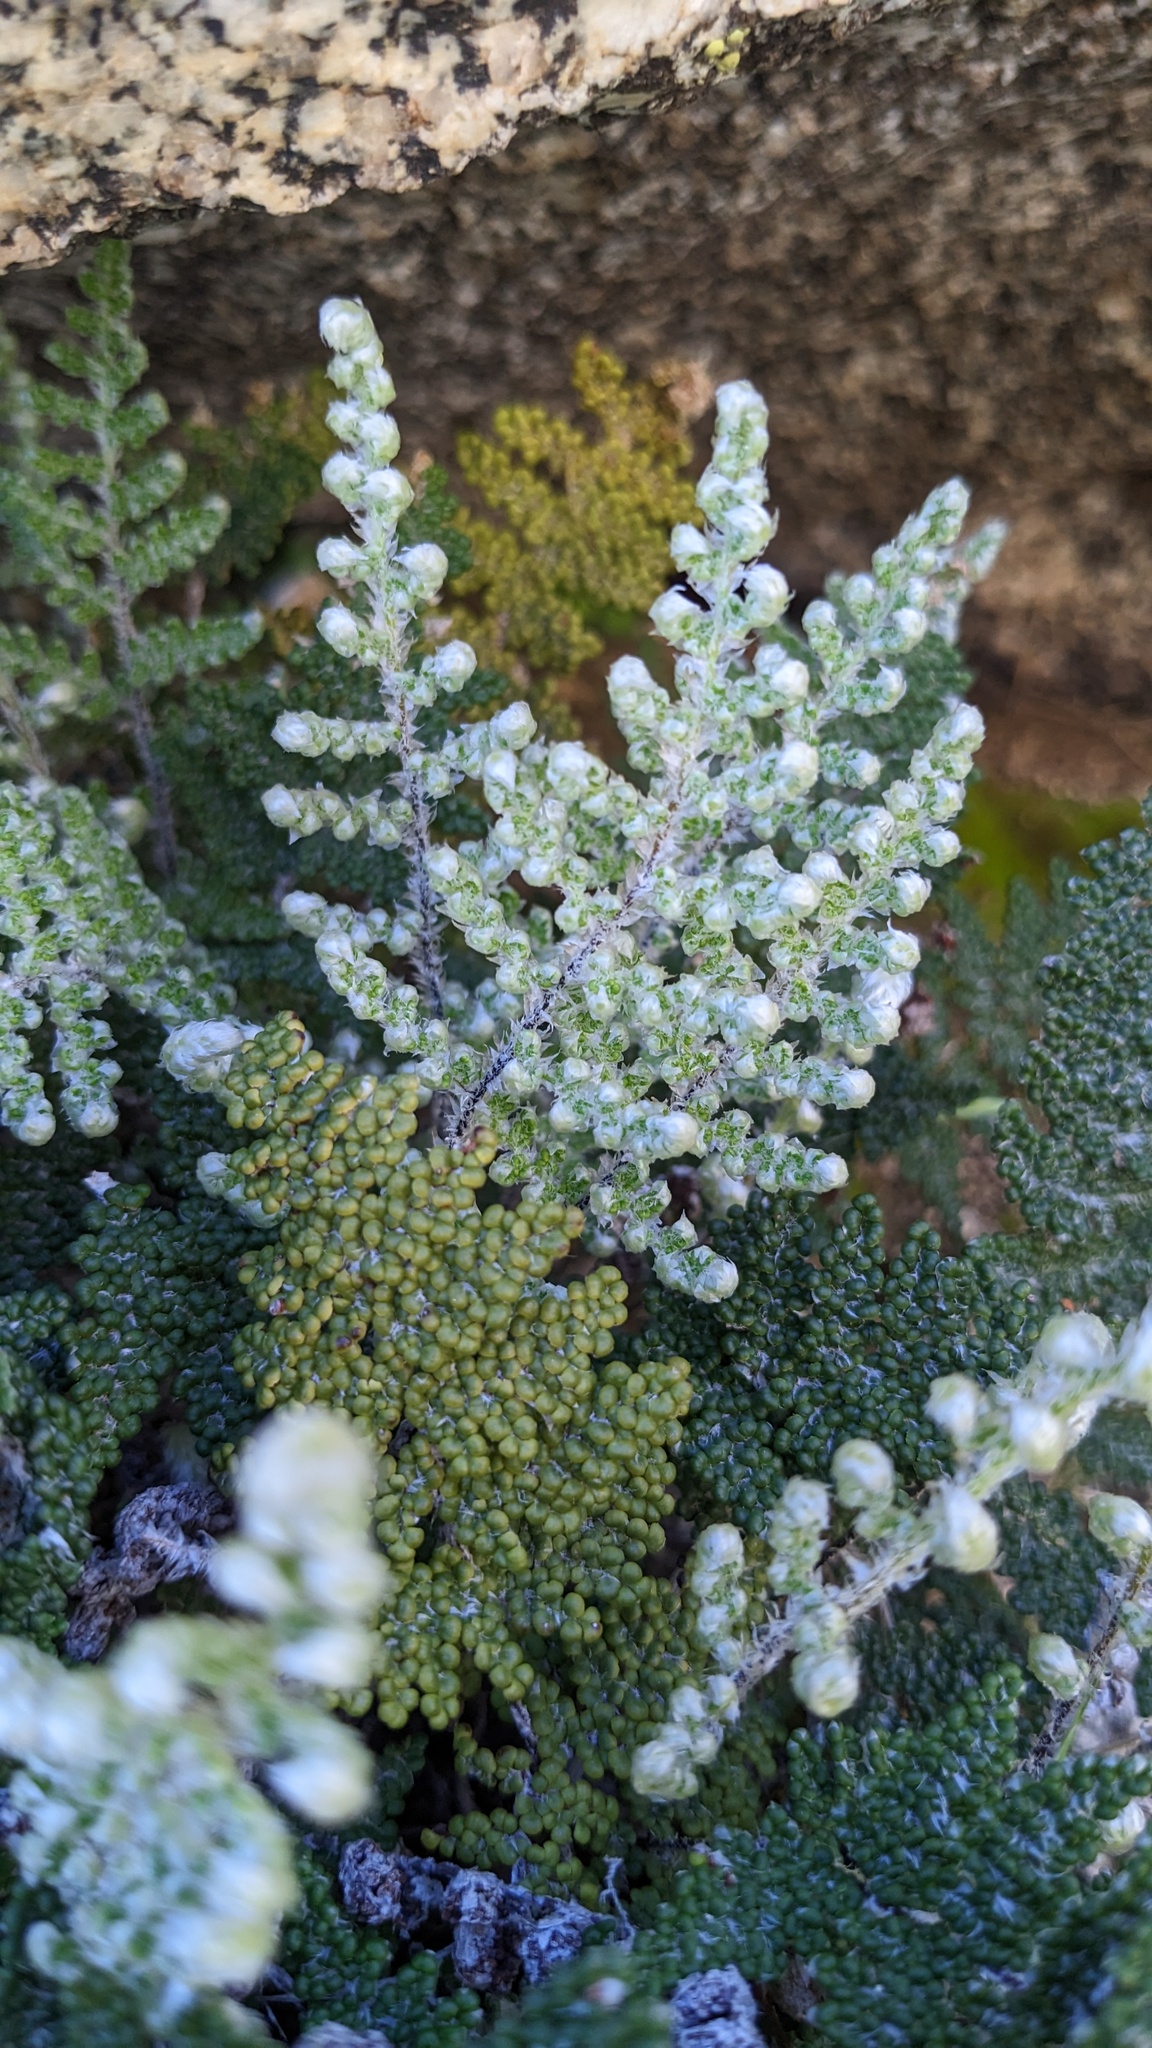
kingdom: Plantae
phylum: Tracheophyta
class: Polypodiopsida
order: Polypodiales
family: Pteridaceae
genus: Myriopteris
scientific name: Myriopteris covillei
